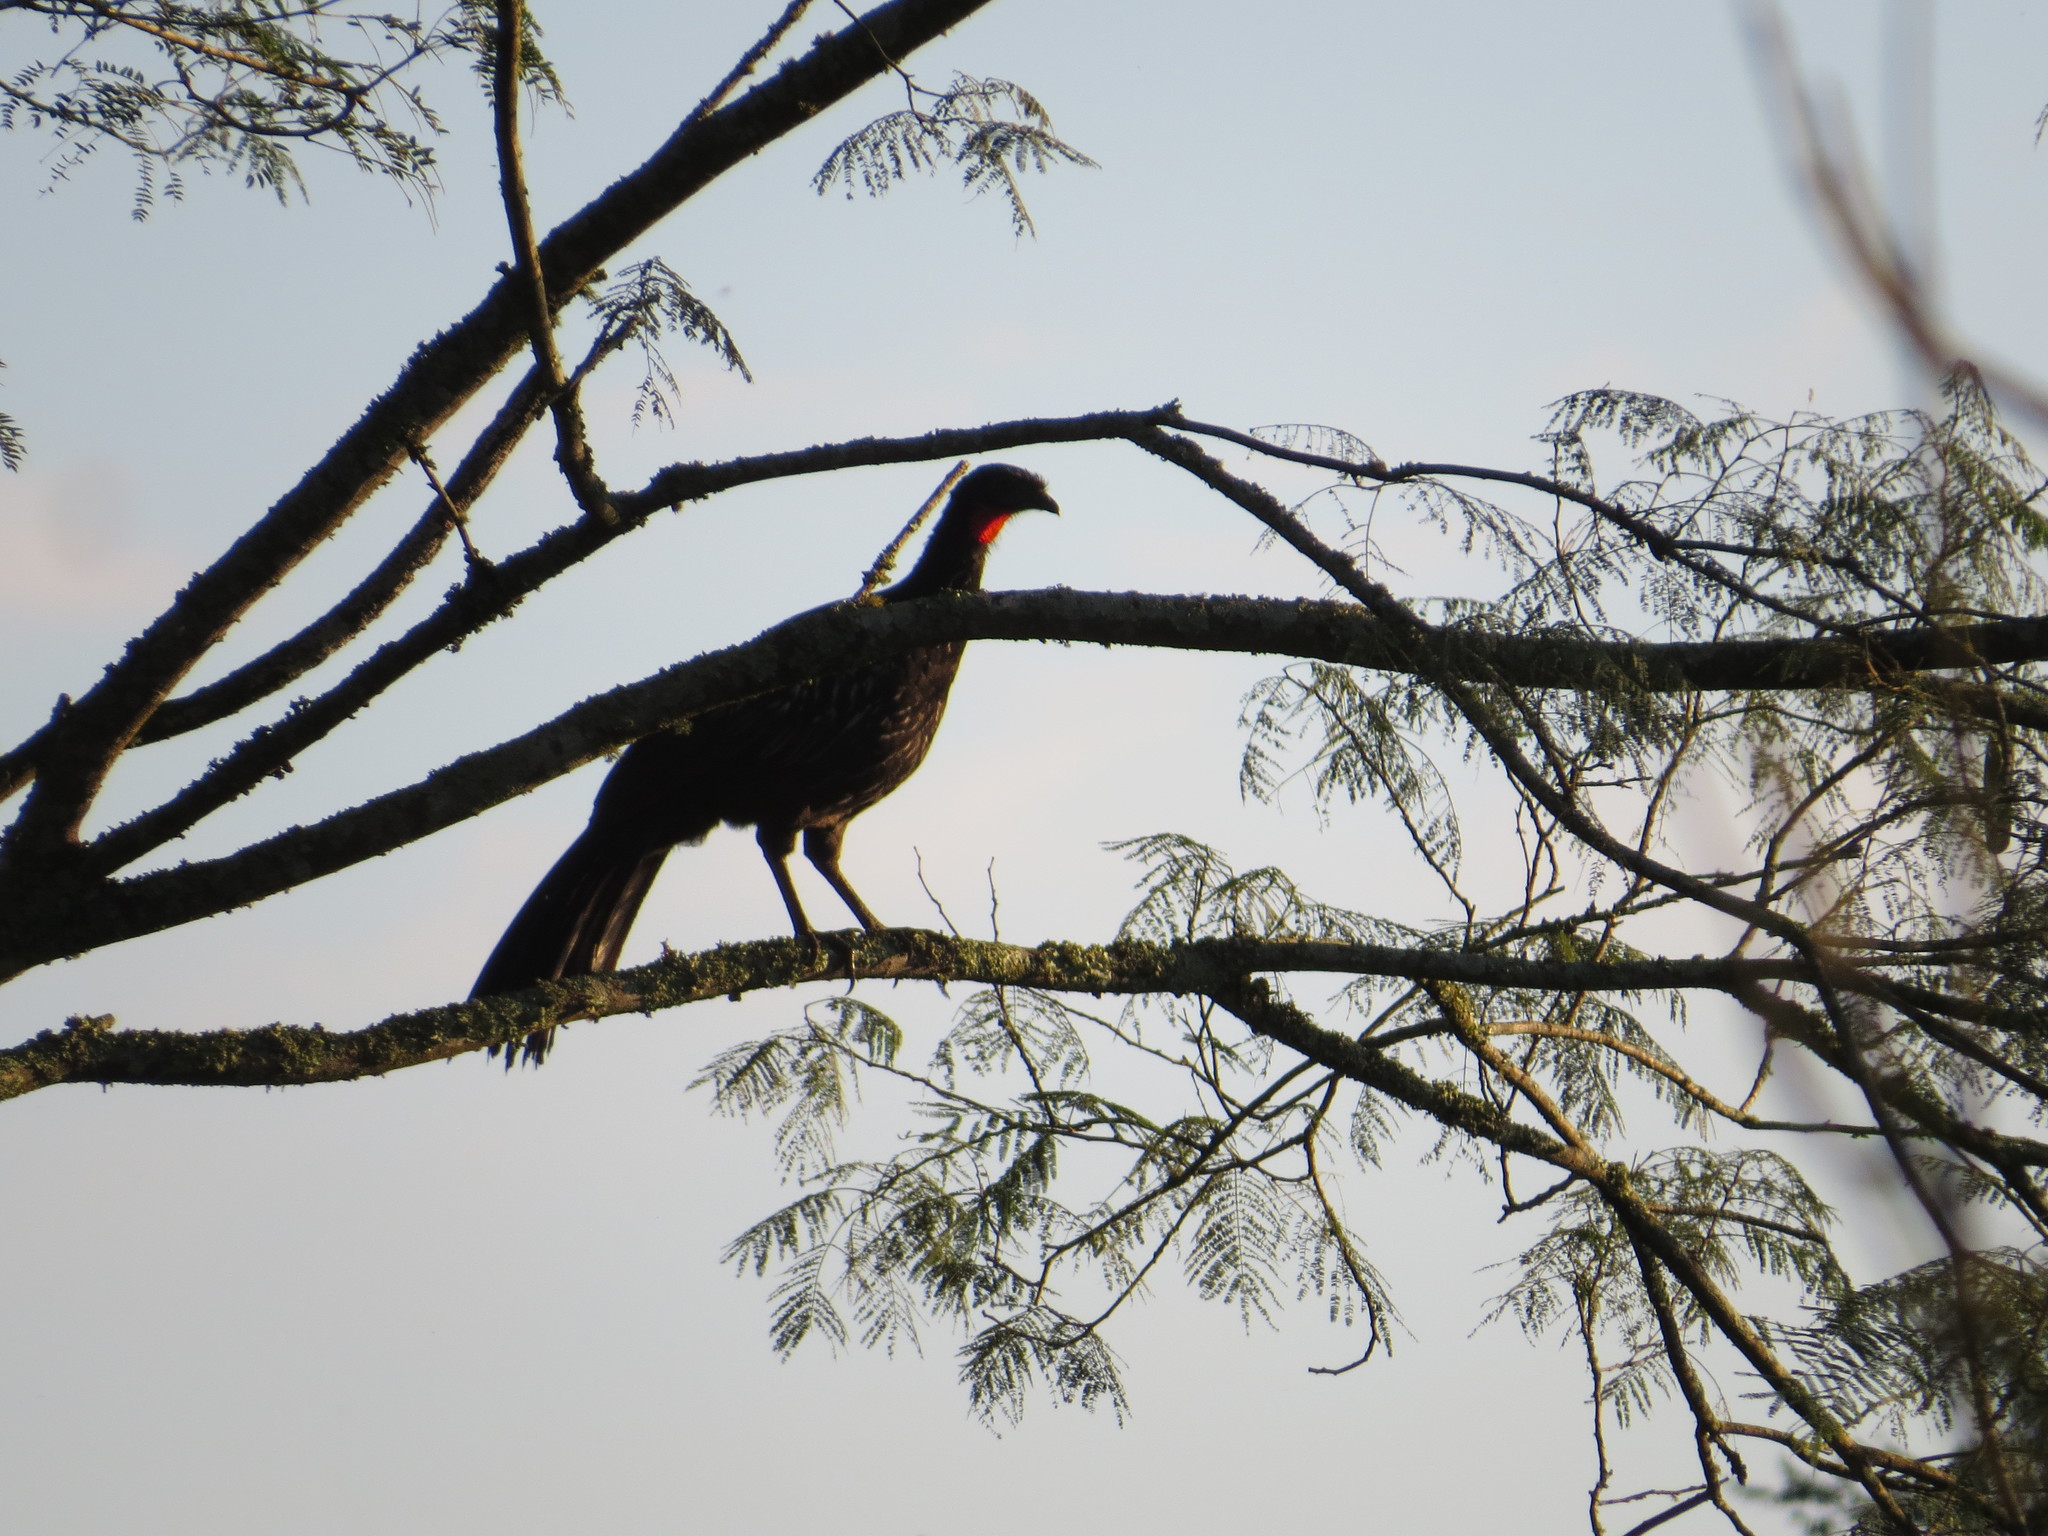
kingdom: Animalia
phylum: Chordata
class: Aves
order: Galliformes
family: Cracidae
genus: Penelope
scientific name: Penelope bridgesi
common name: Yungas guan
